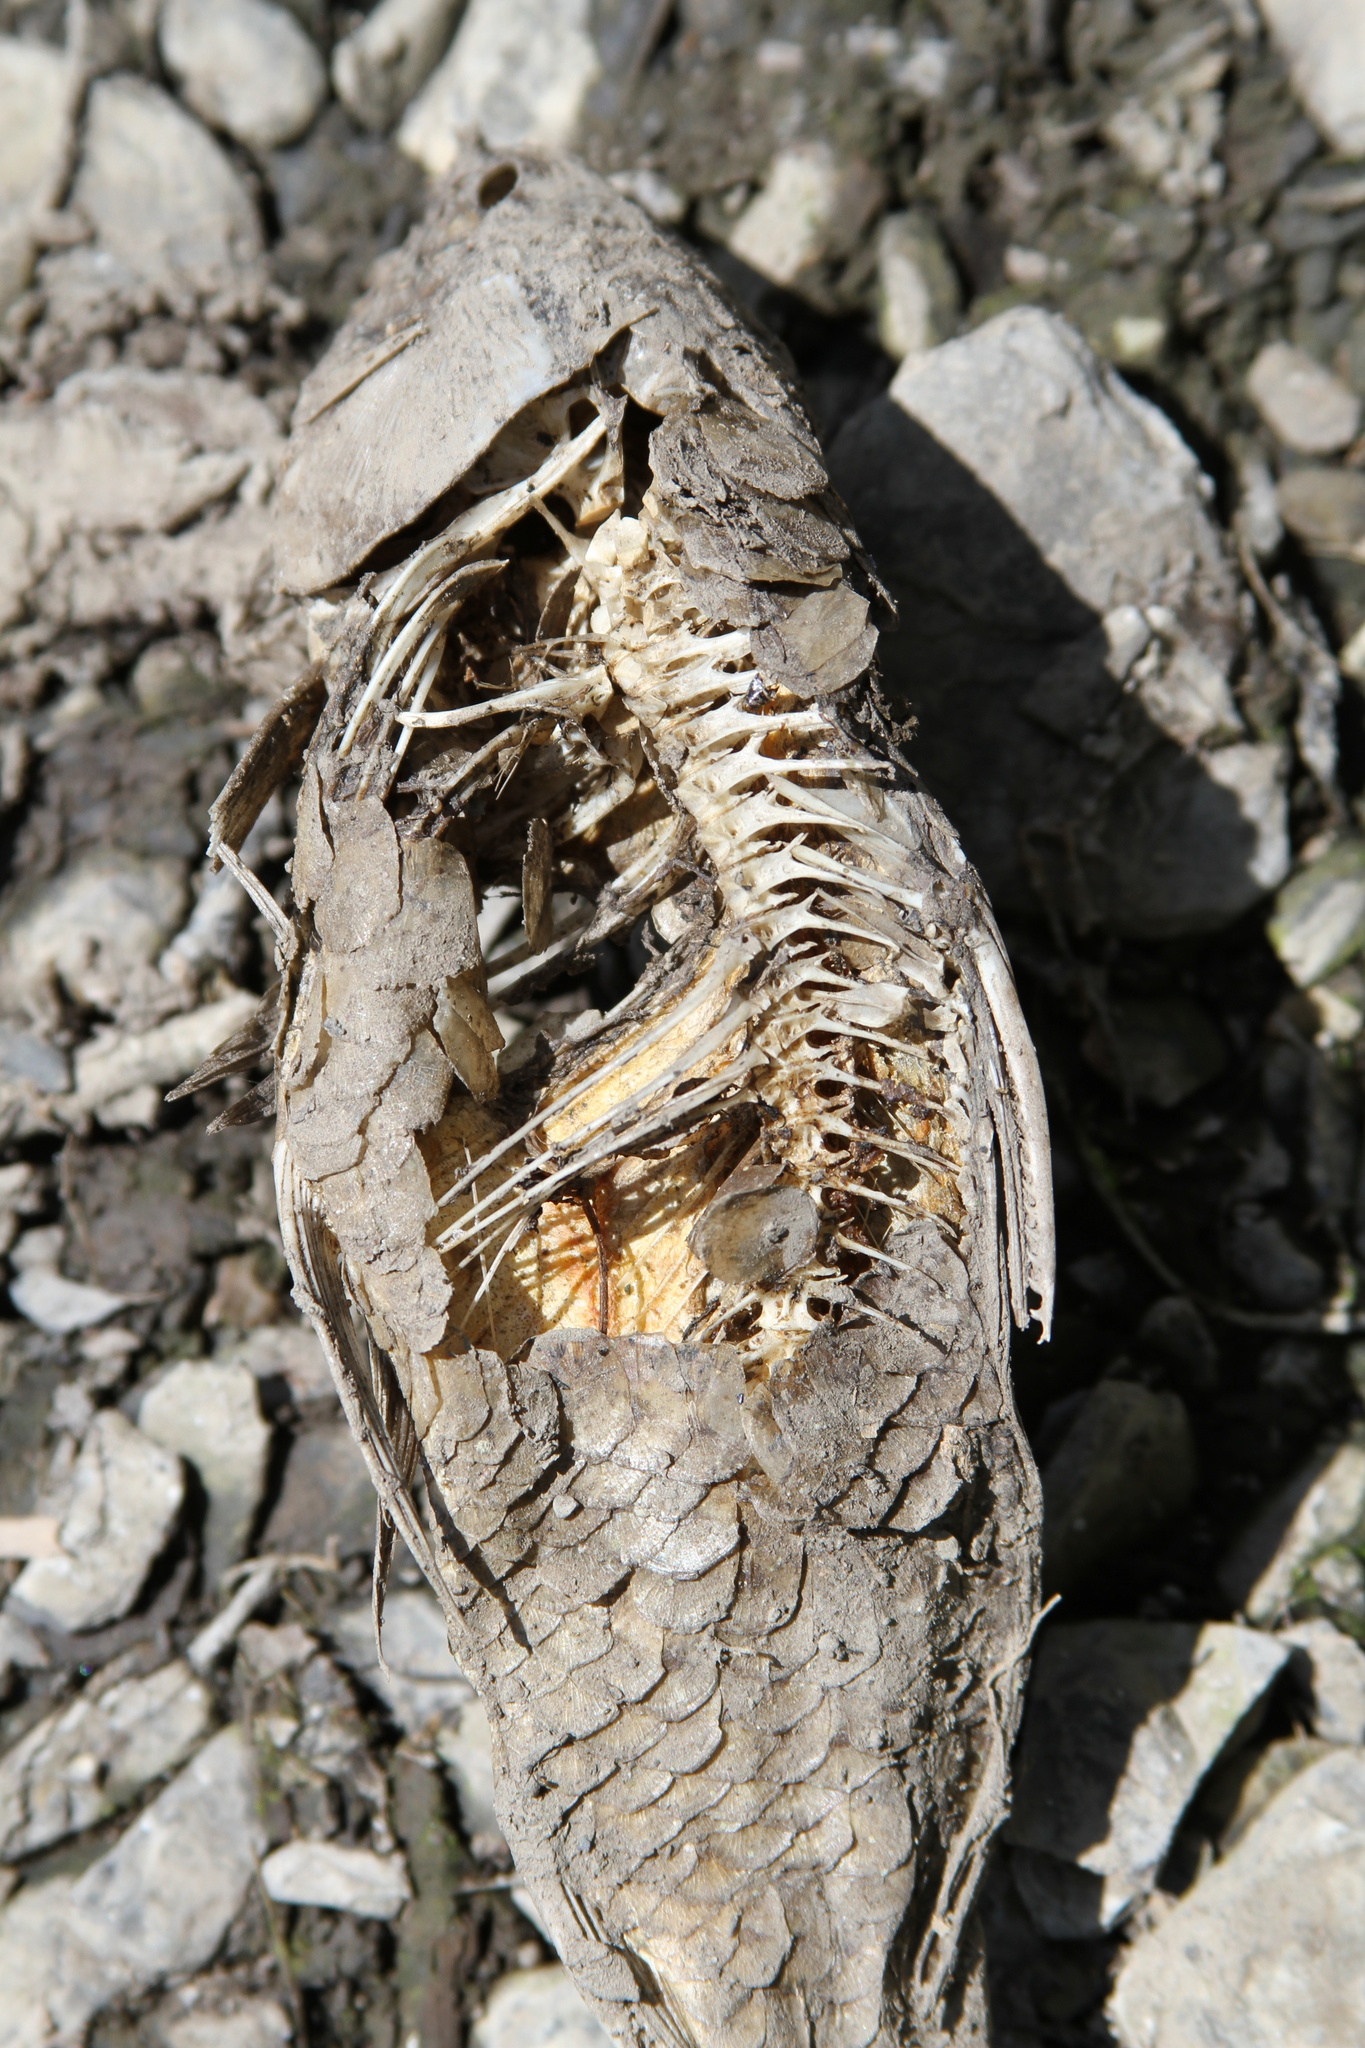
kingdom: Animalia
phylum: Chordata
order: Cypriniformes
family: Cyprinidae
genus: Cyprinus
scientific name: Cyprinus carpio
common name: Common carp
